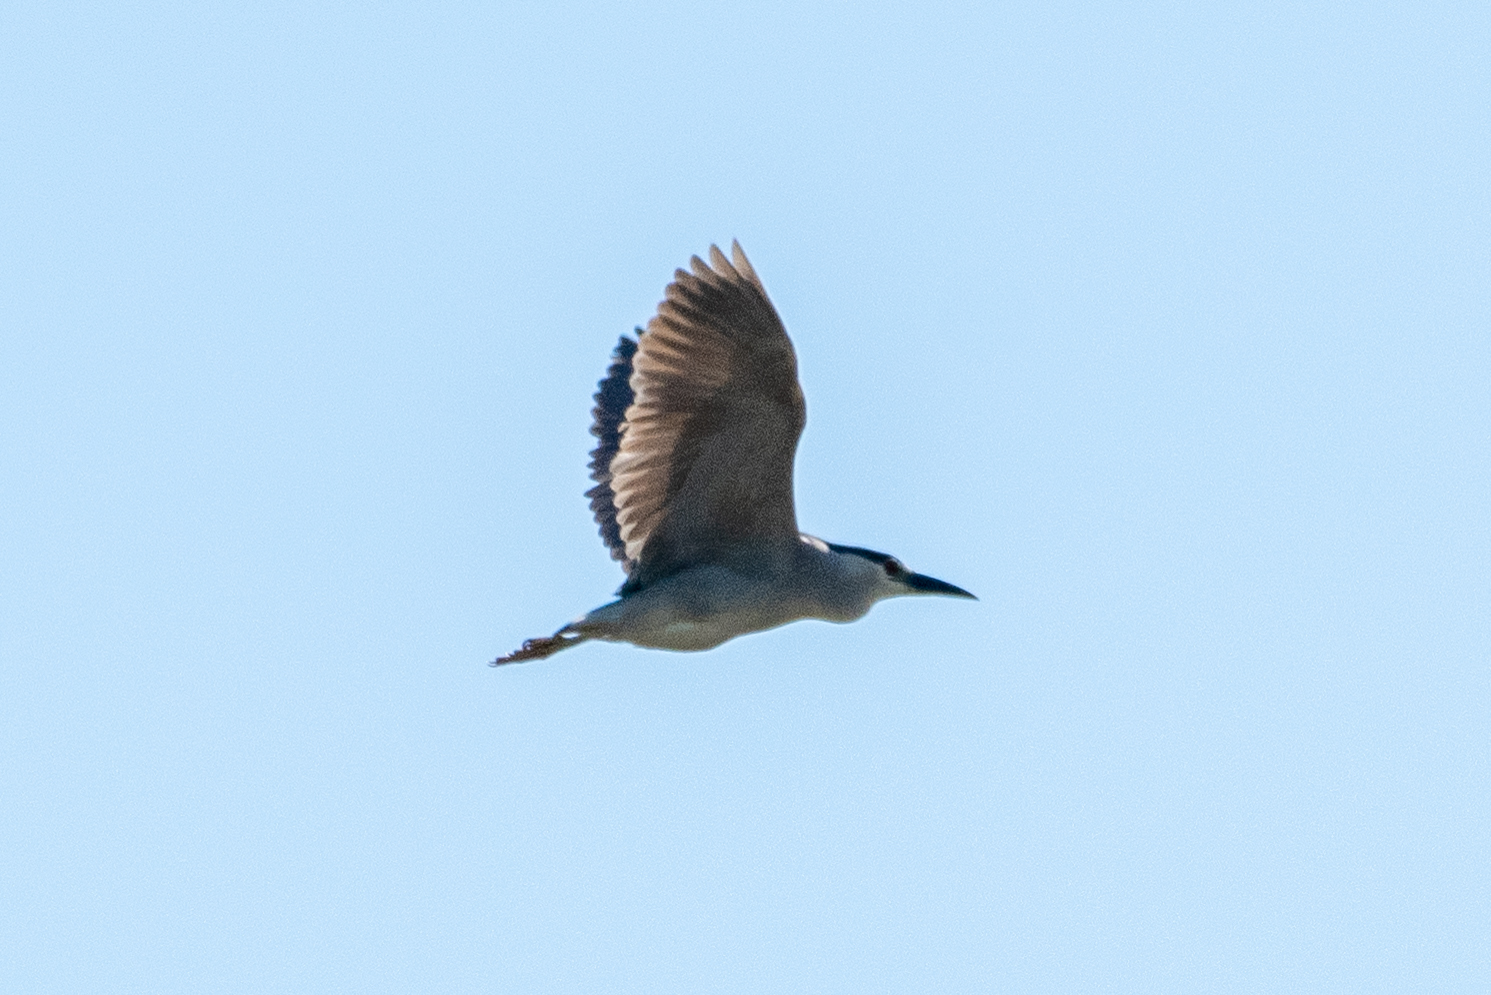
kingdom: Animalia
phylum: Chordata
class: Aves
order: Pelecaniformes
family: Ardeidae
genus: Nycticorax
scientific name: Nycticorax nycticorax
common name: Black-crowned night heron
